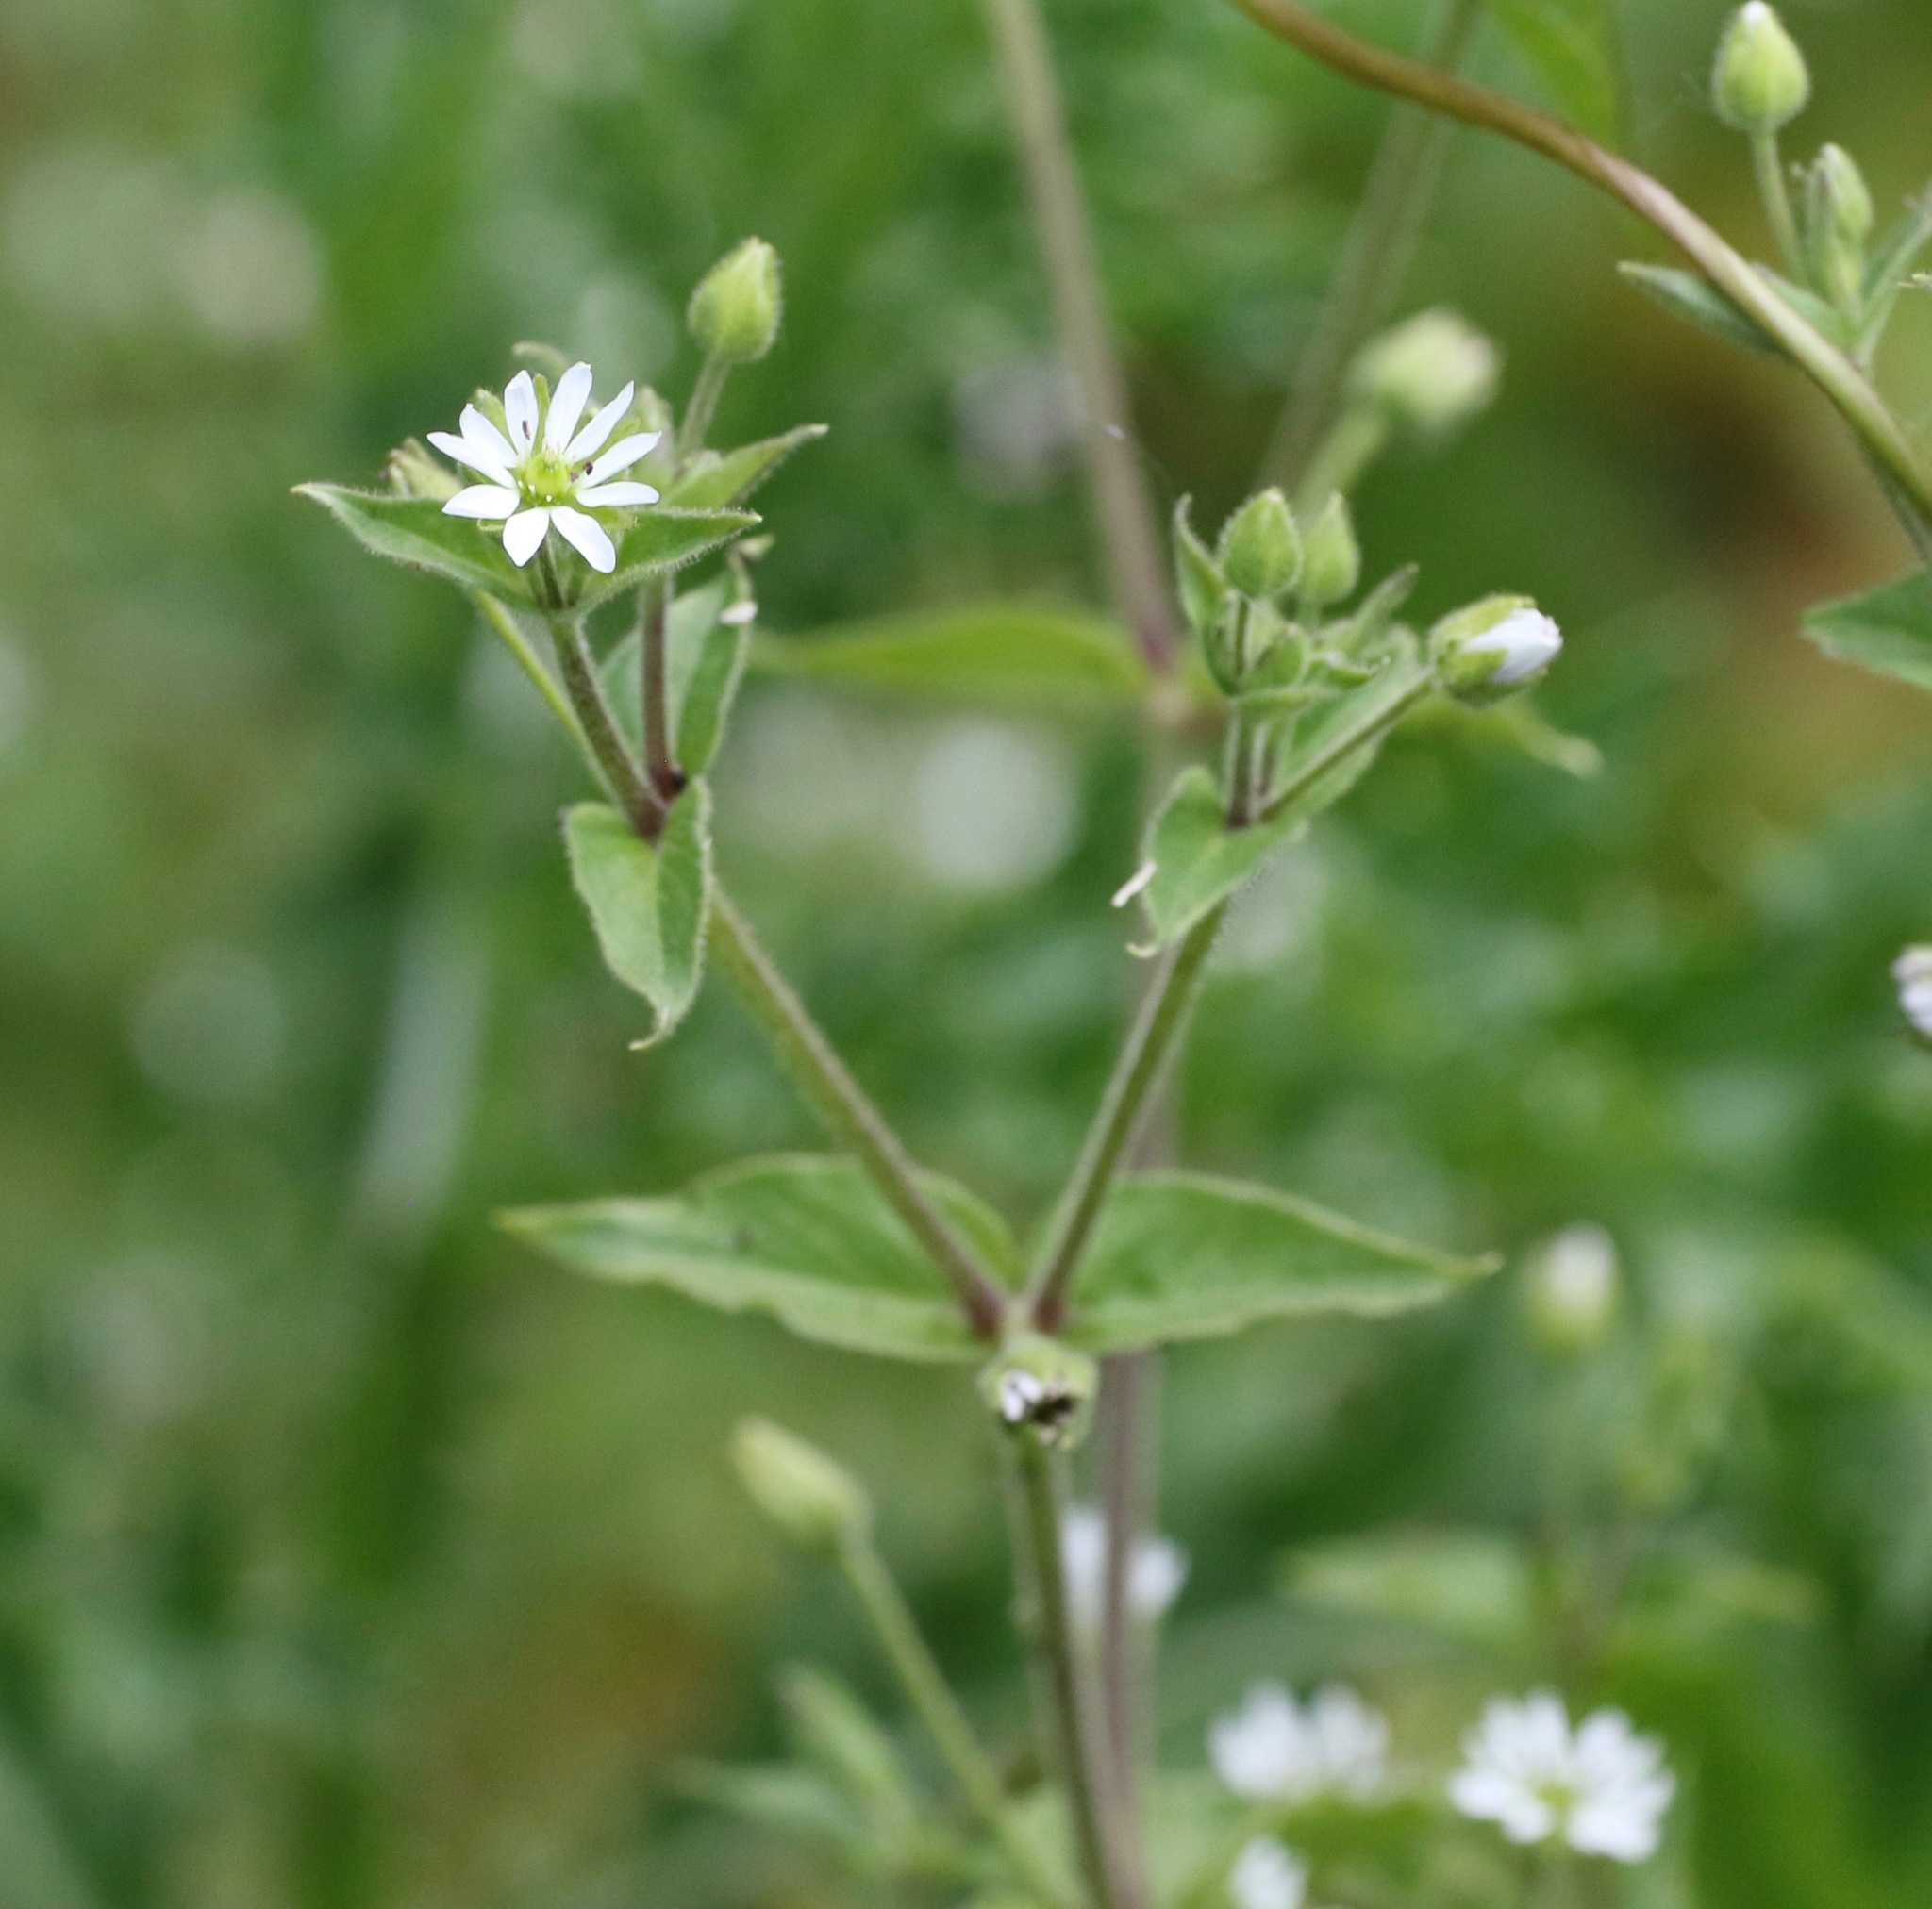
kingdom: Plantae
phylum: Tracheophyta
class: Magnoliopsida
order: Caryophyllales
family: Caryophyllaceae
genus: Stellaria
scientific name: Stellaria aquatica
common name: Water chickweed
